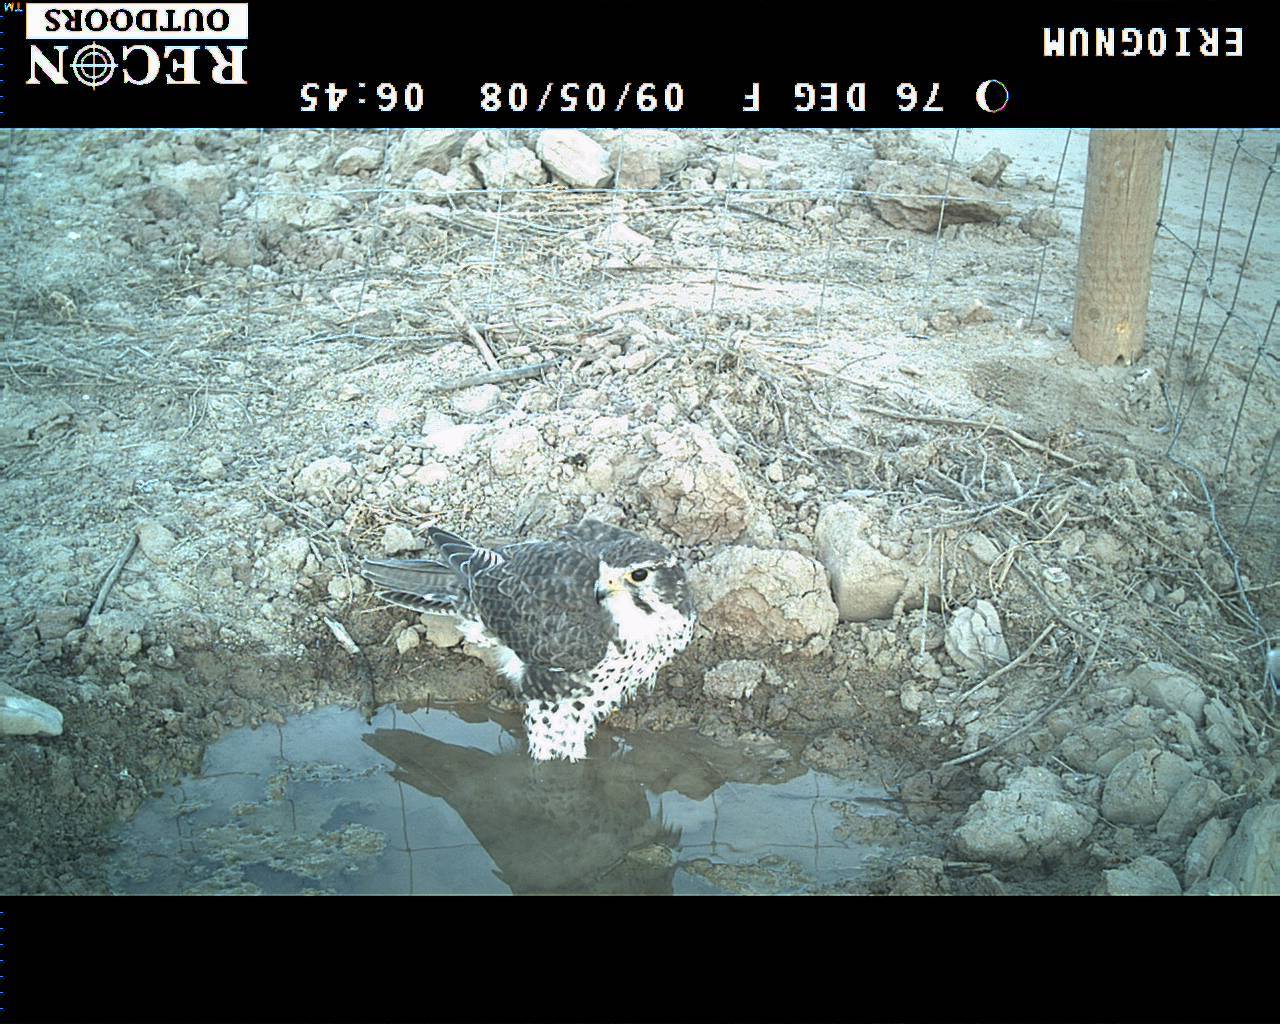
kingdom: Animalia
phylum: Chordata
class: Aves
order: Falconiformes
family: Falconidae
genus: Falco
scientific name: Falco mexicanus
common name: Prairie falcon
